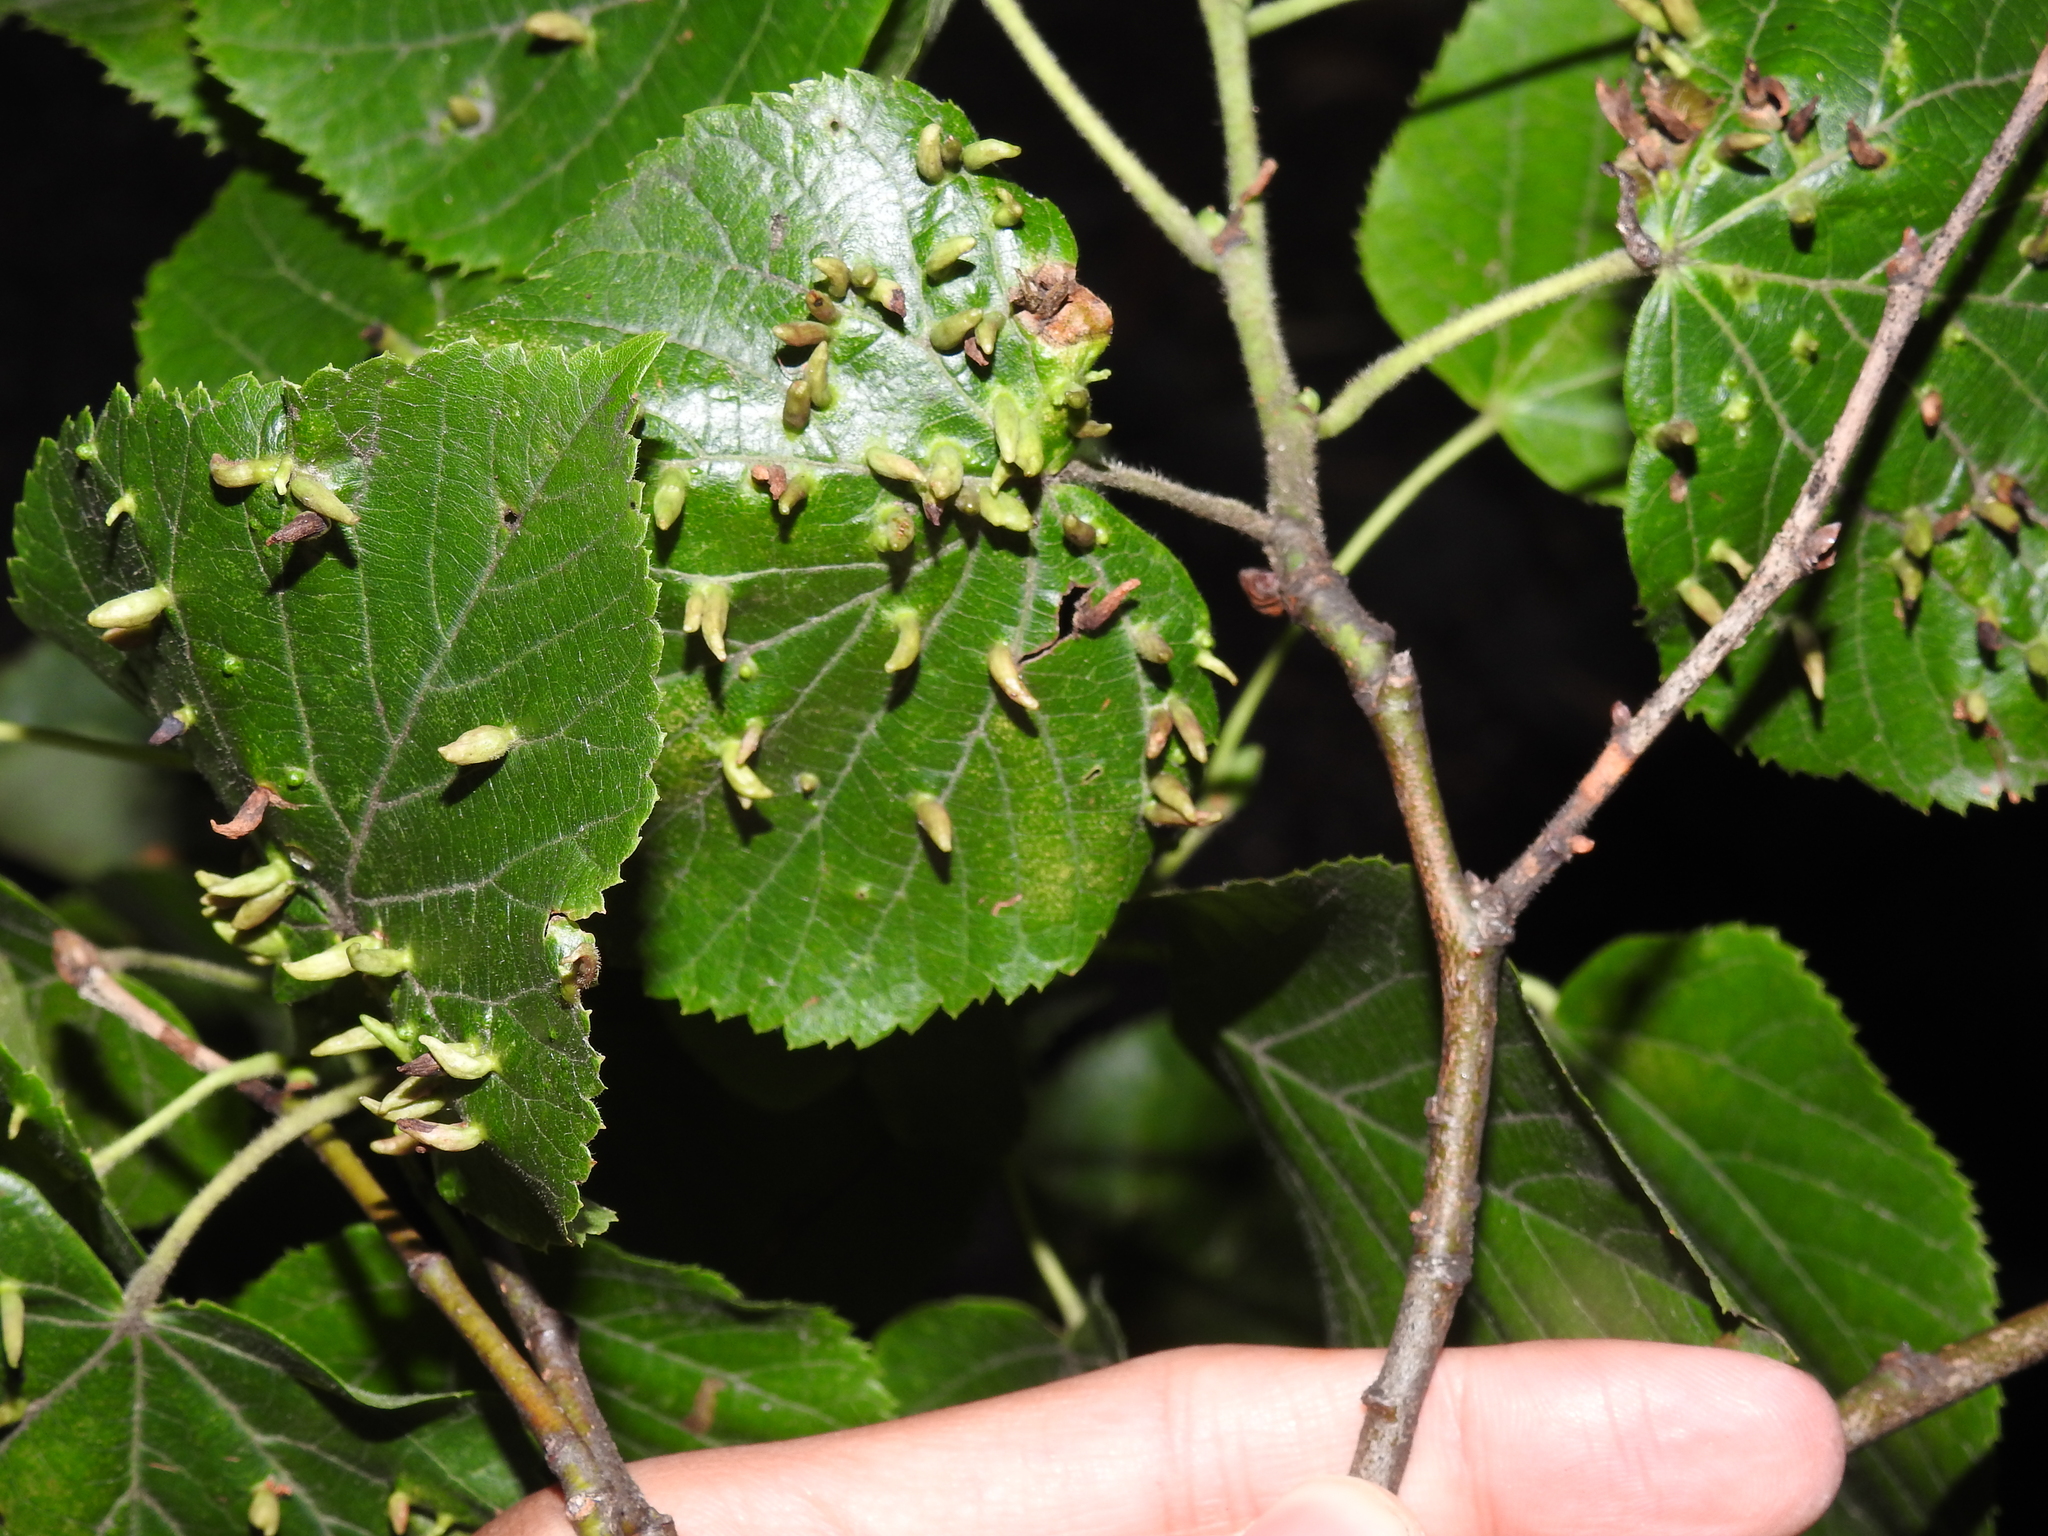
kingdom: Animalia
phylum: Arthropoda
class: Arachnida
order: Trombidiformes
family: Eriophyidae
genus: Eriophyes
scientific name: Eriophyes tiliae
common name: Red nail gall mite
